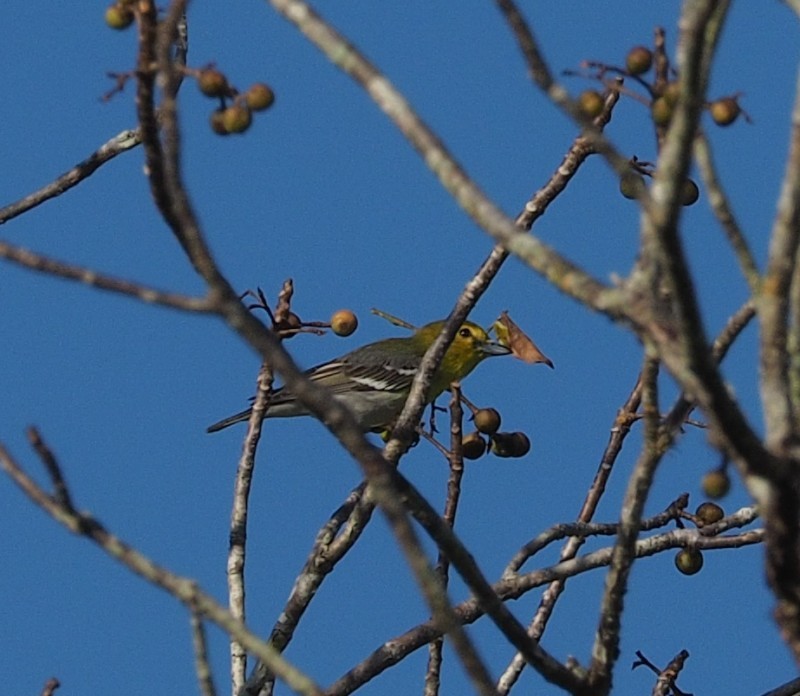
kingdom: Animalia
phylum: Chordata
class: Aves
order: Passeriformes
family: Vireonidae
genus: Vireo
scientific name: Vireo flavifrons
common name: Yellow-throated vireo
